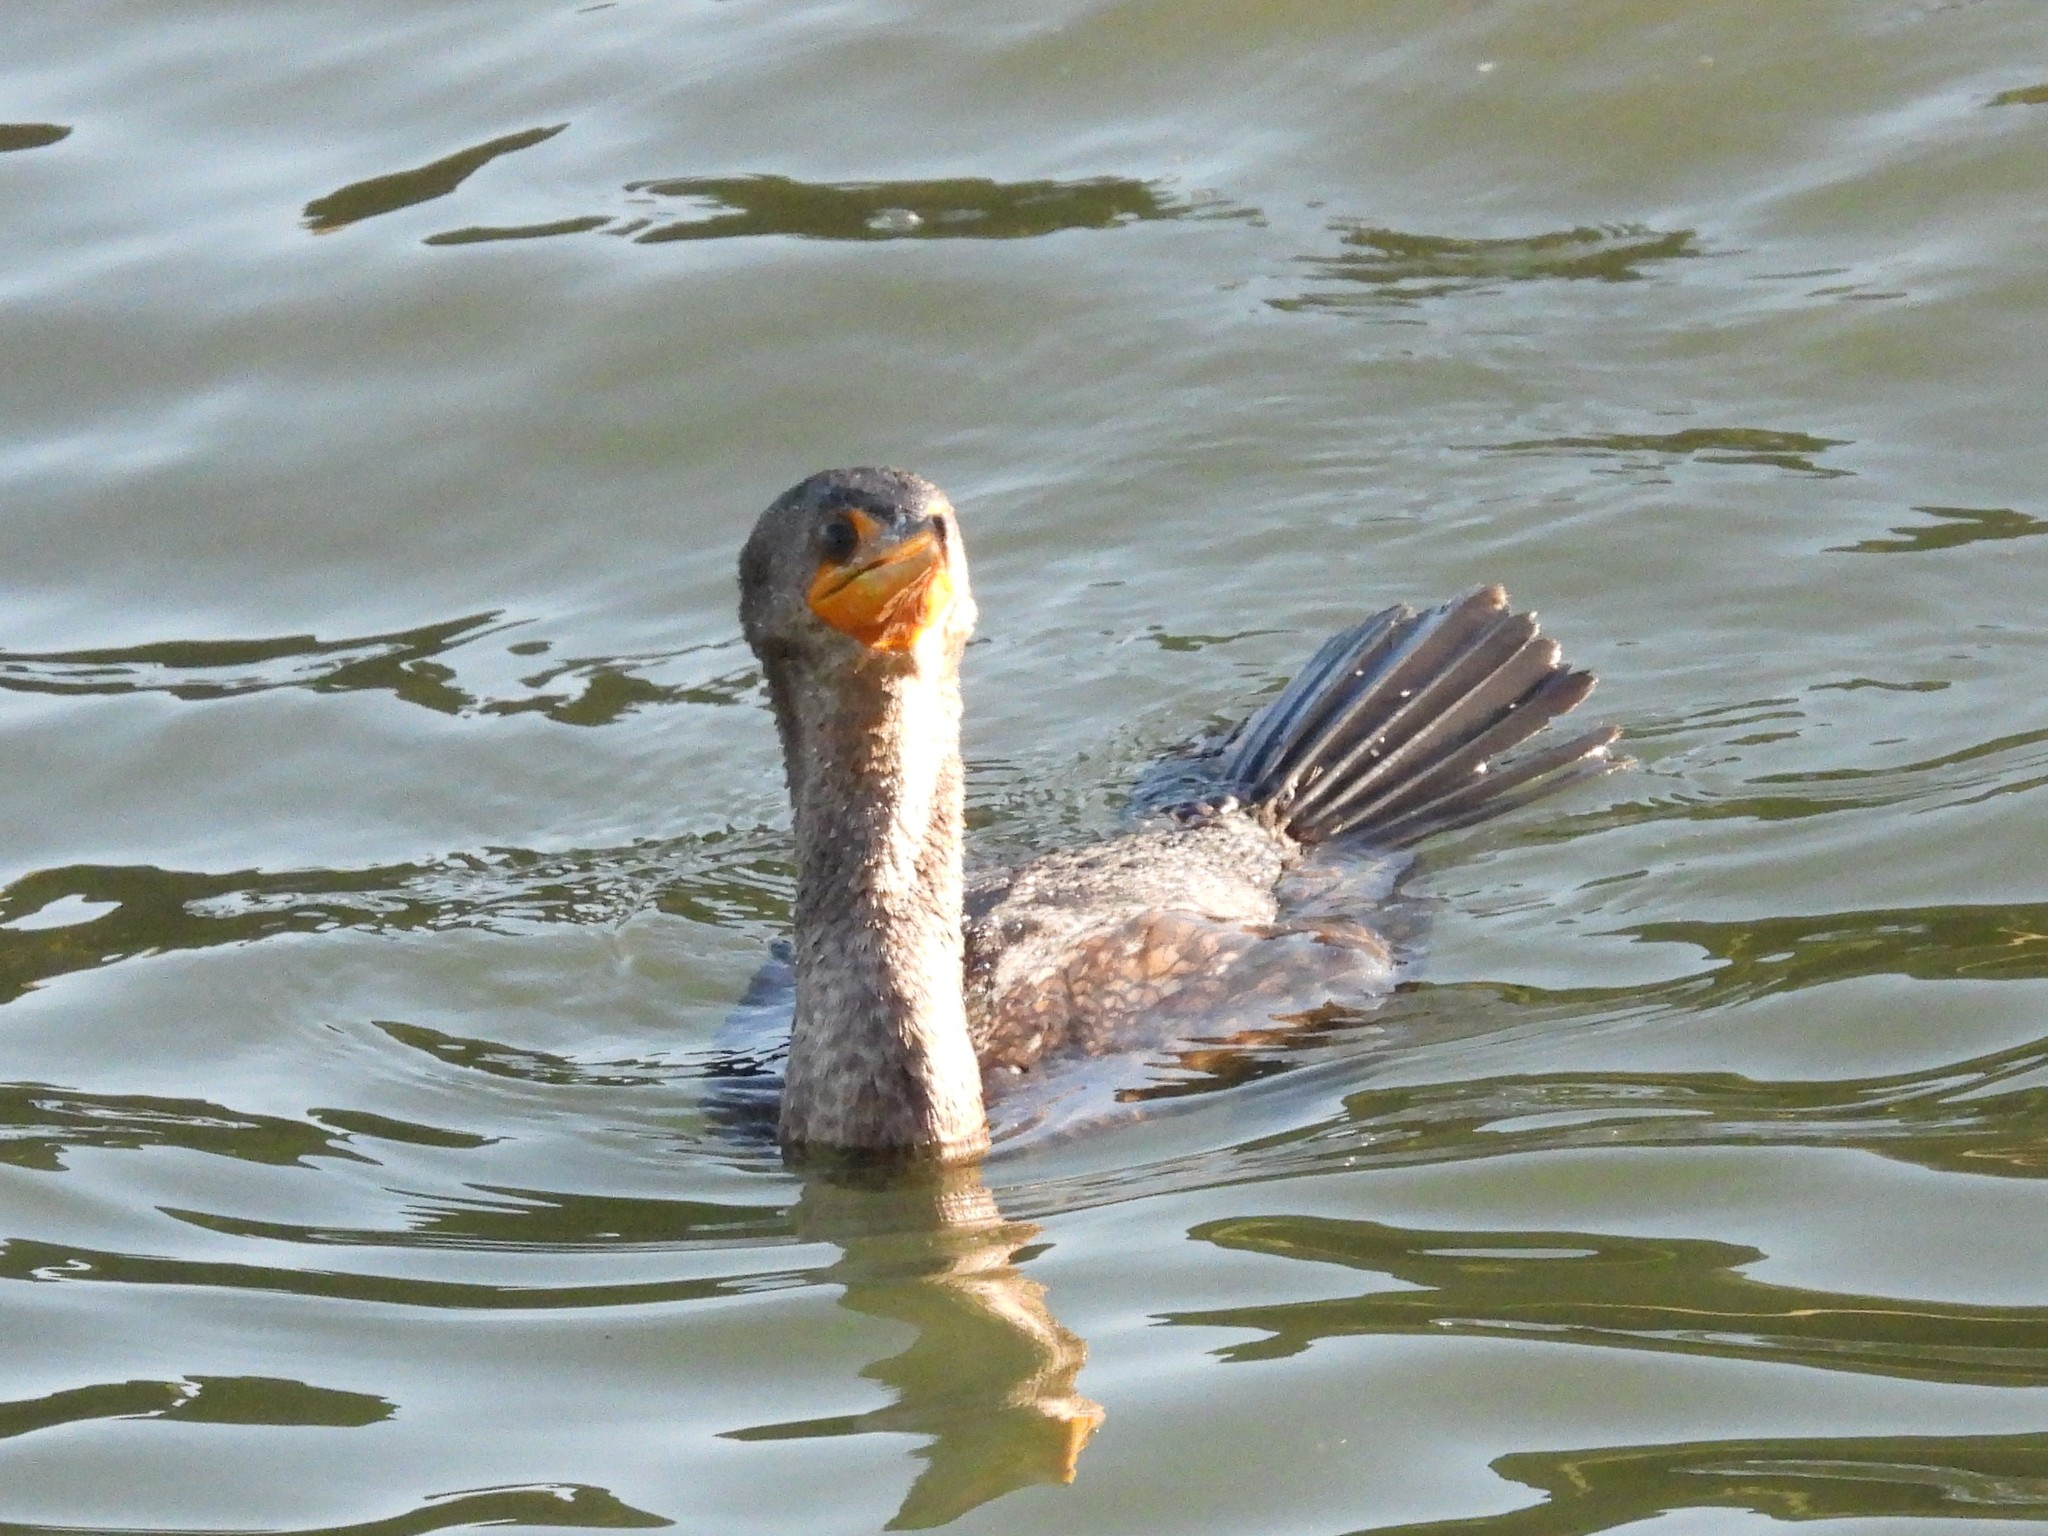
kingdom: Animalia
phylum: Chordata
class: Aves
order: Suliformes
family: Phalacrocoracidae
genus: Phalacrocorax
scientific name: Phalacrocorax auritus
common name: Double-crested cormorant
